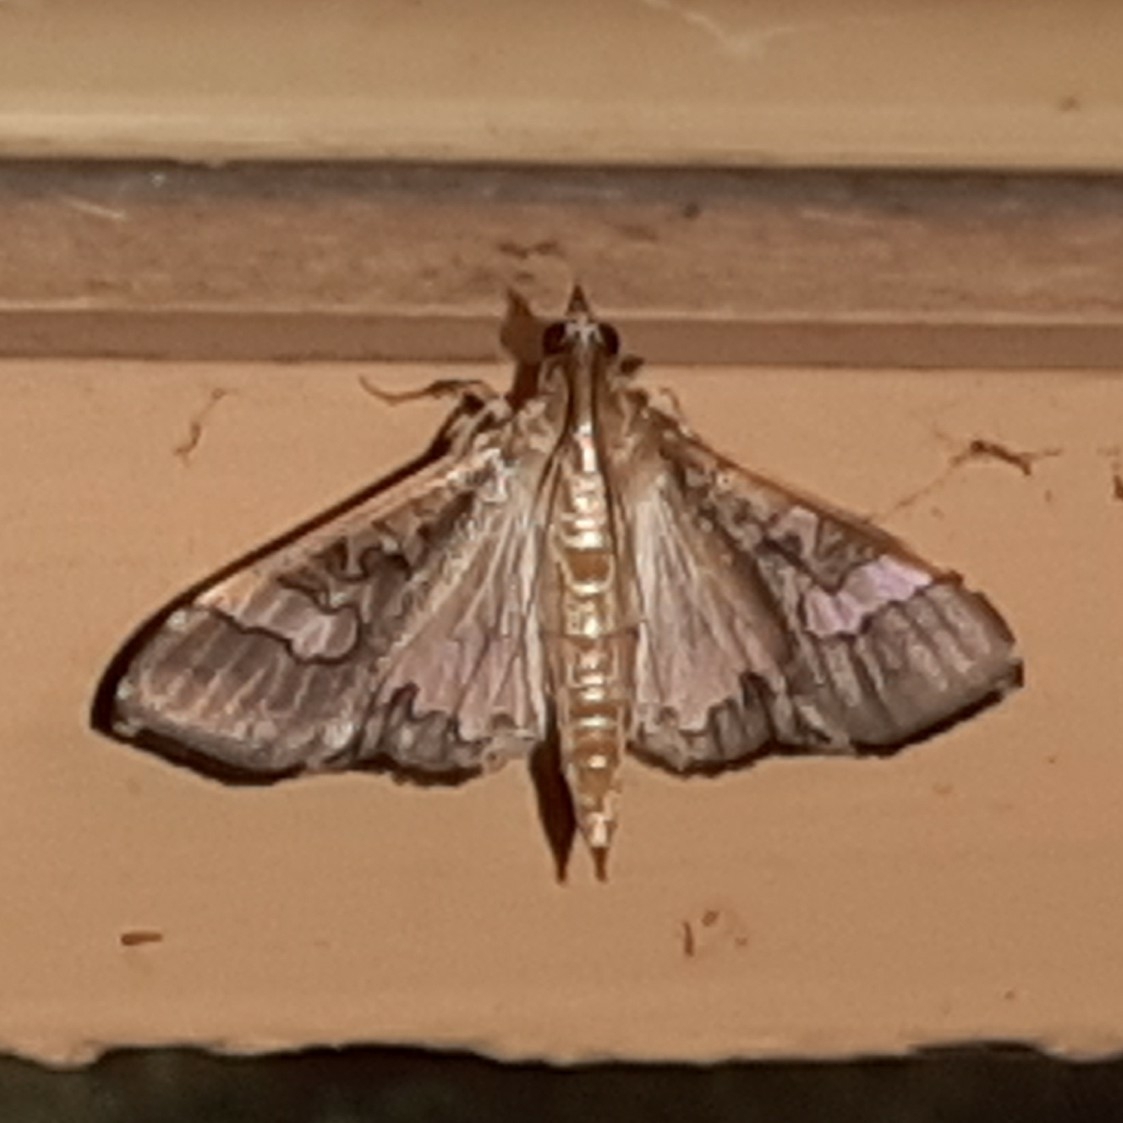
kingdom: Animalia
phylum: Arthropoda
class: Insecta
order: Lepidoptera
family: Crambidae
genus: Maruca
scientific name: Maruca vitrata
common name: Maruca pod borer
